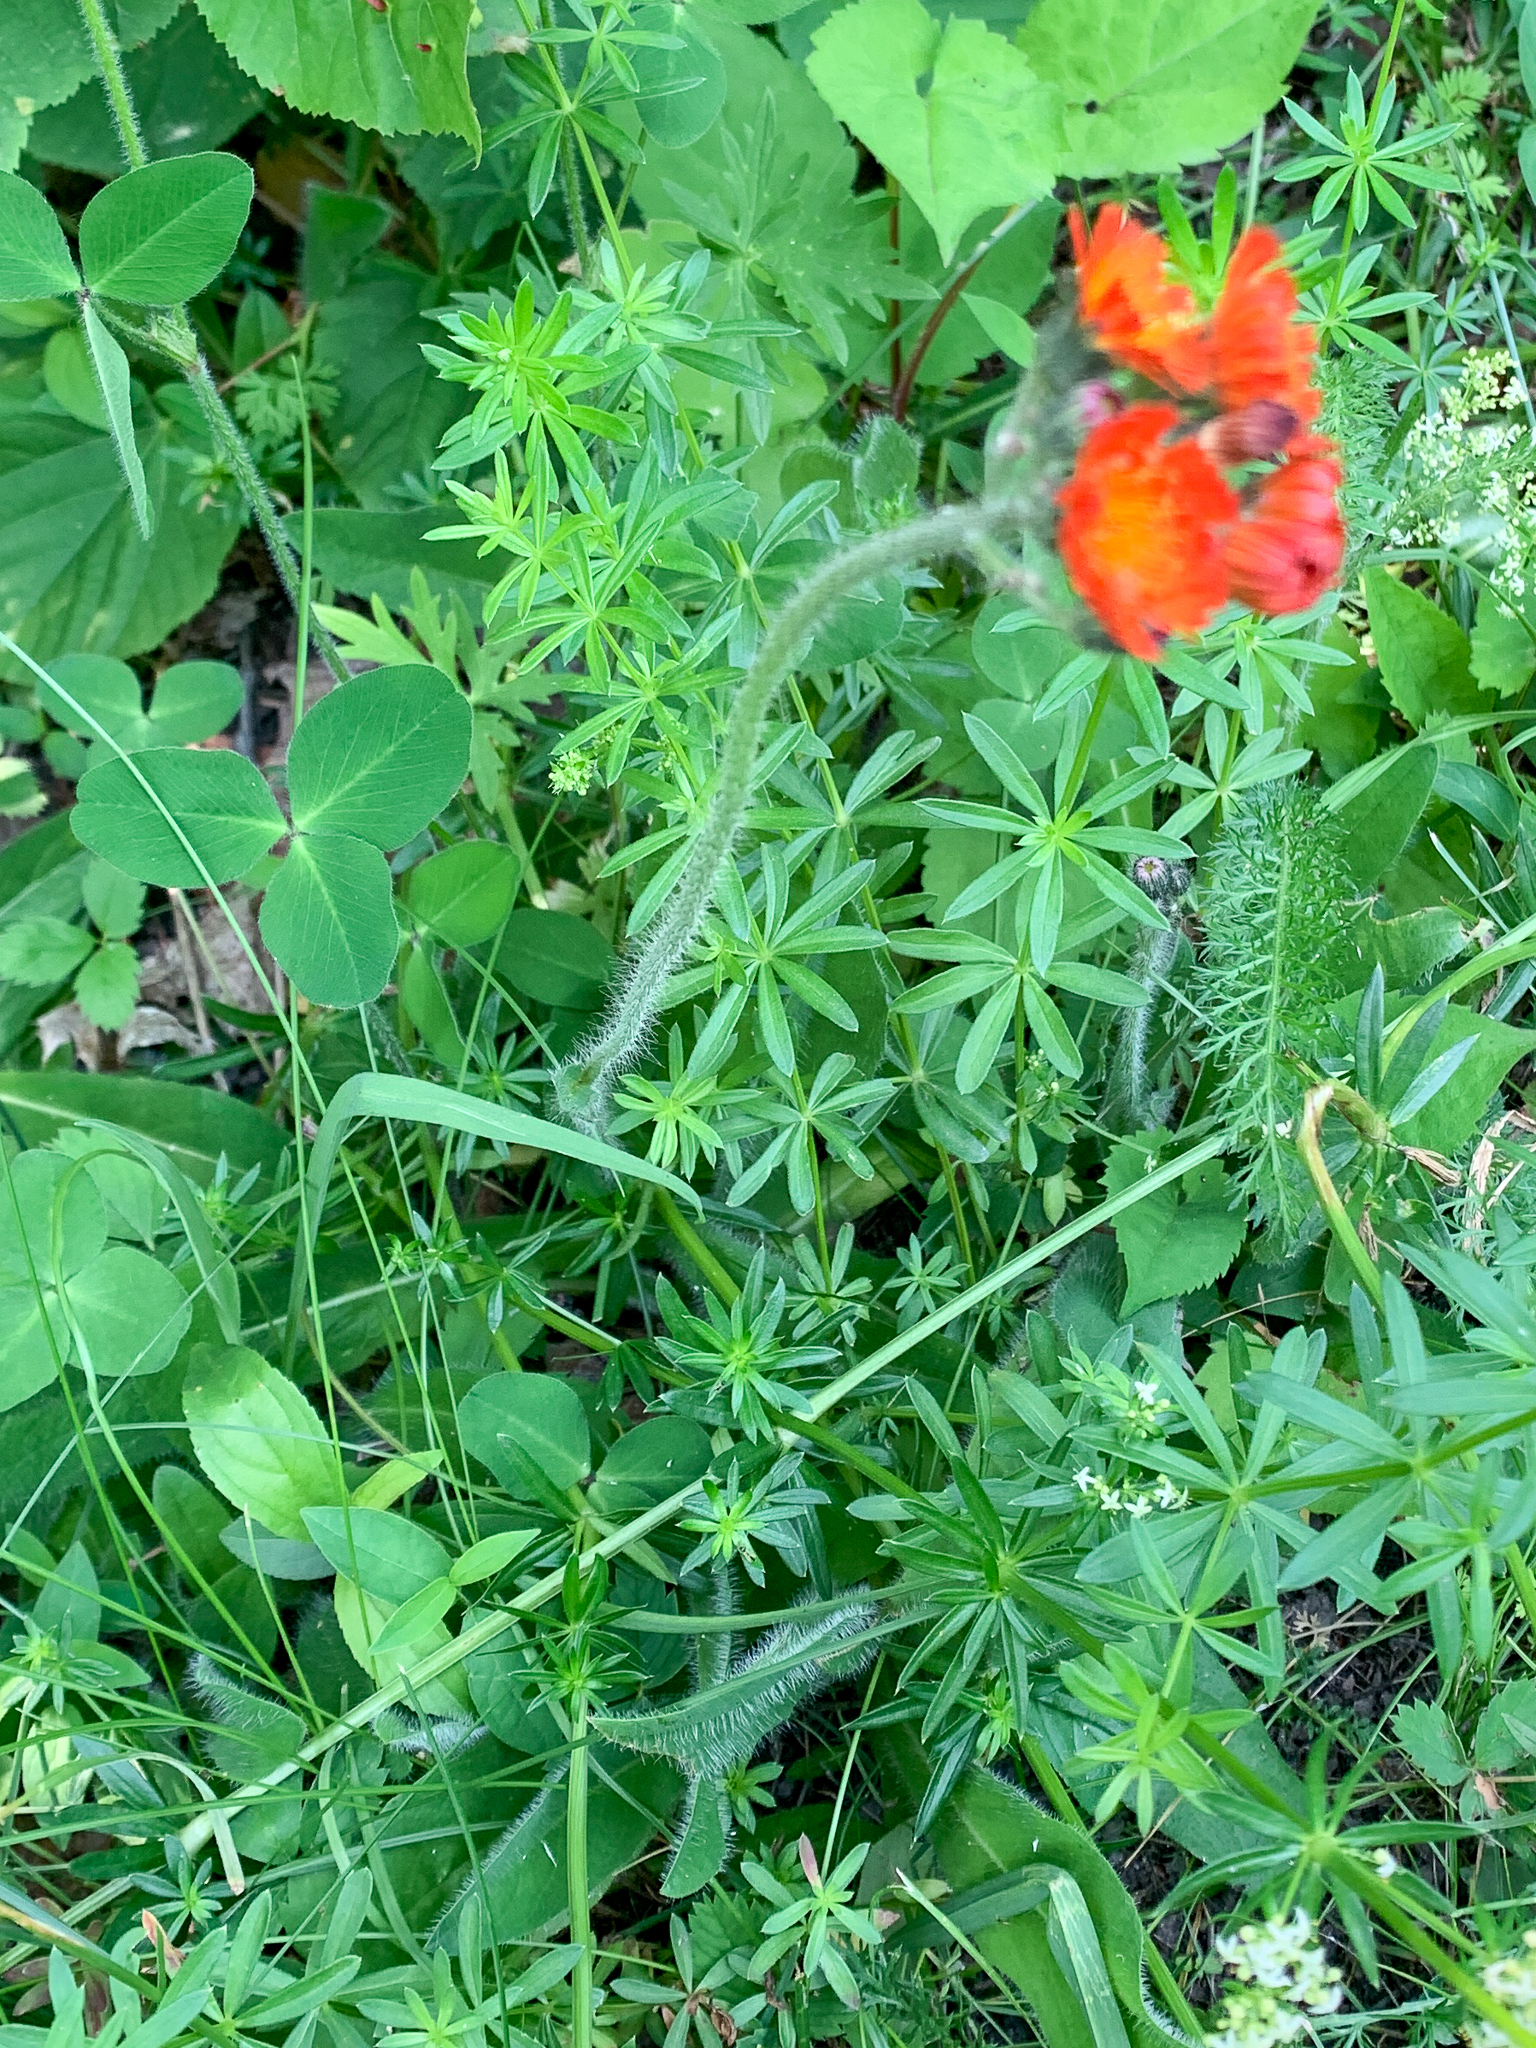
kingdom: Plantae
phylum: Tracheophyta
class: Magnoliopsida
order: Asterales
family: Asteraceae
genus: Pilosella
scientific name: Pilosella aurantiaca
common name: Fox-and-cubs
